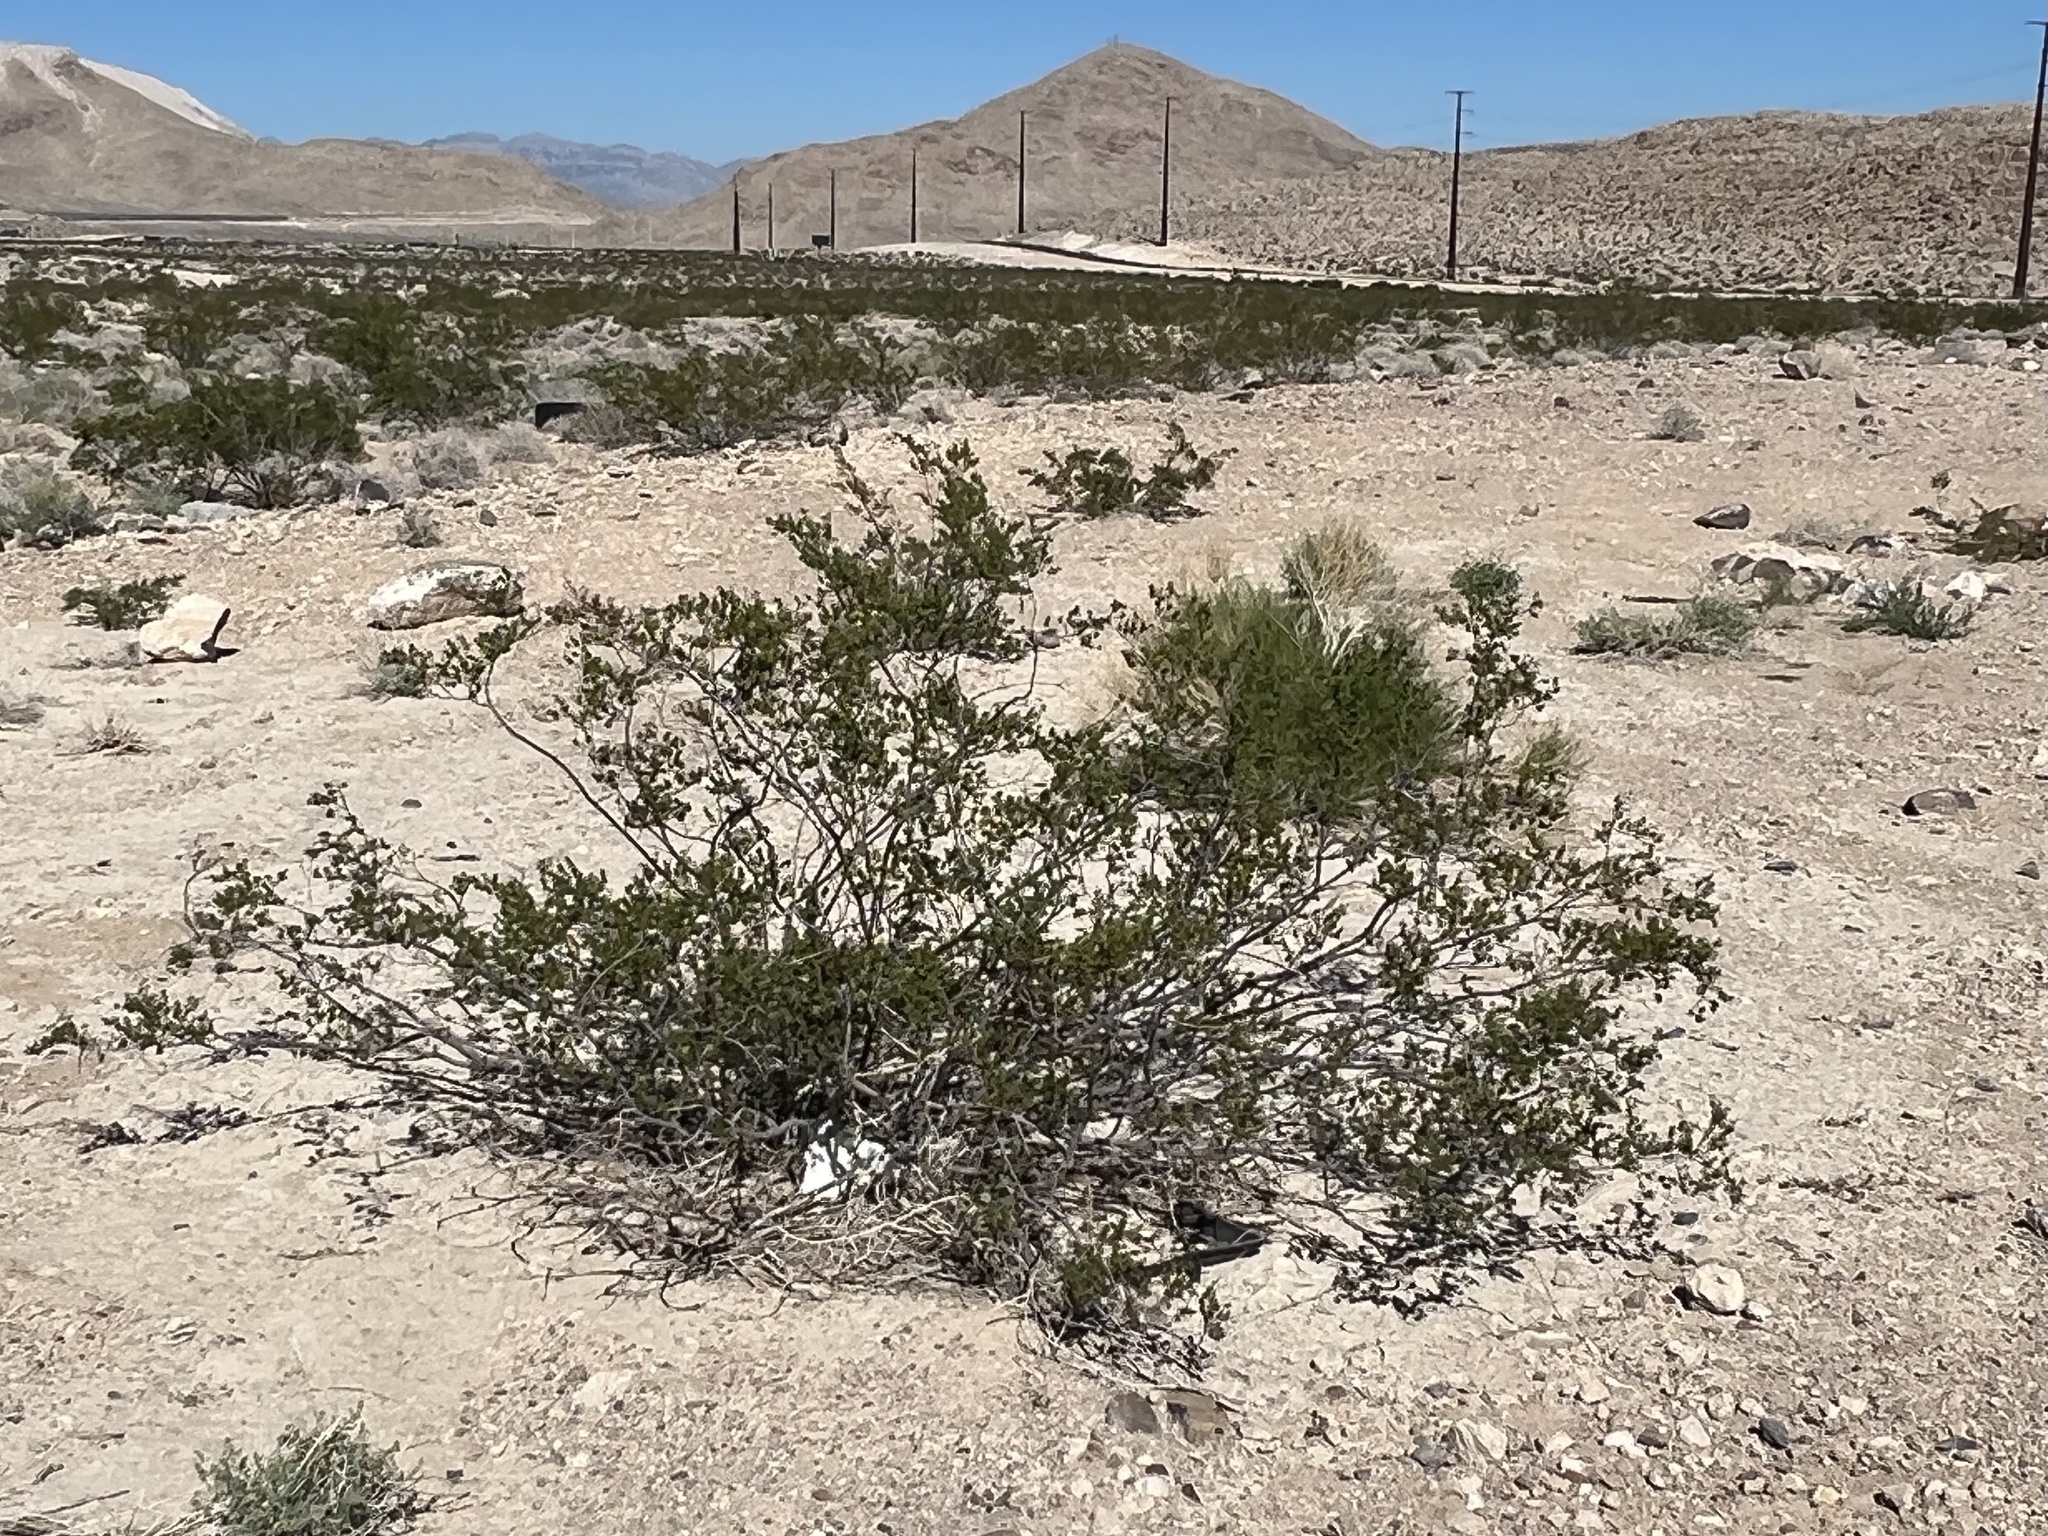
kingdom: Plantae
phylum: Tracheophyta
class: Magnoliopsida
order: Zygophyllales
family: Zygophyllaceae
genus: Larrea
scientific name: Larrea tridentata
